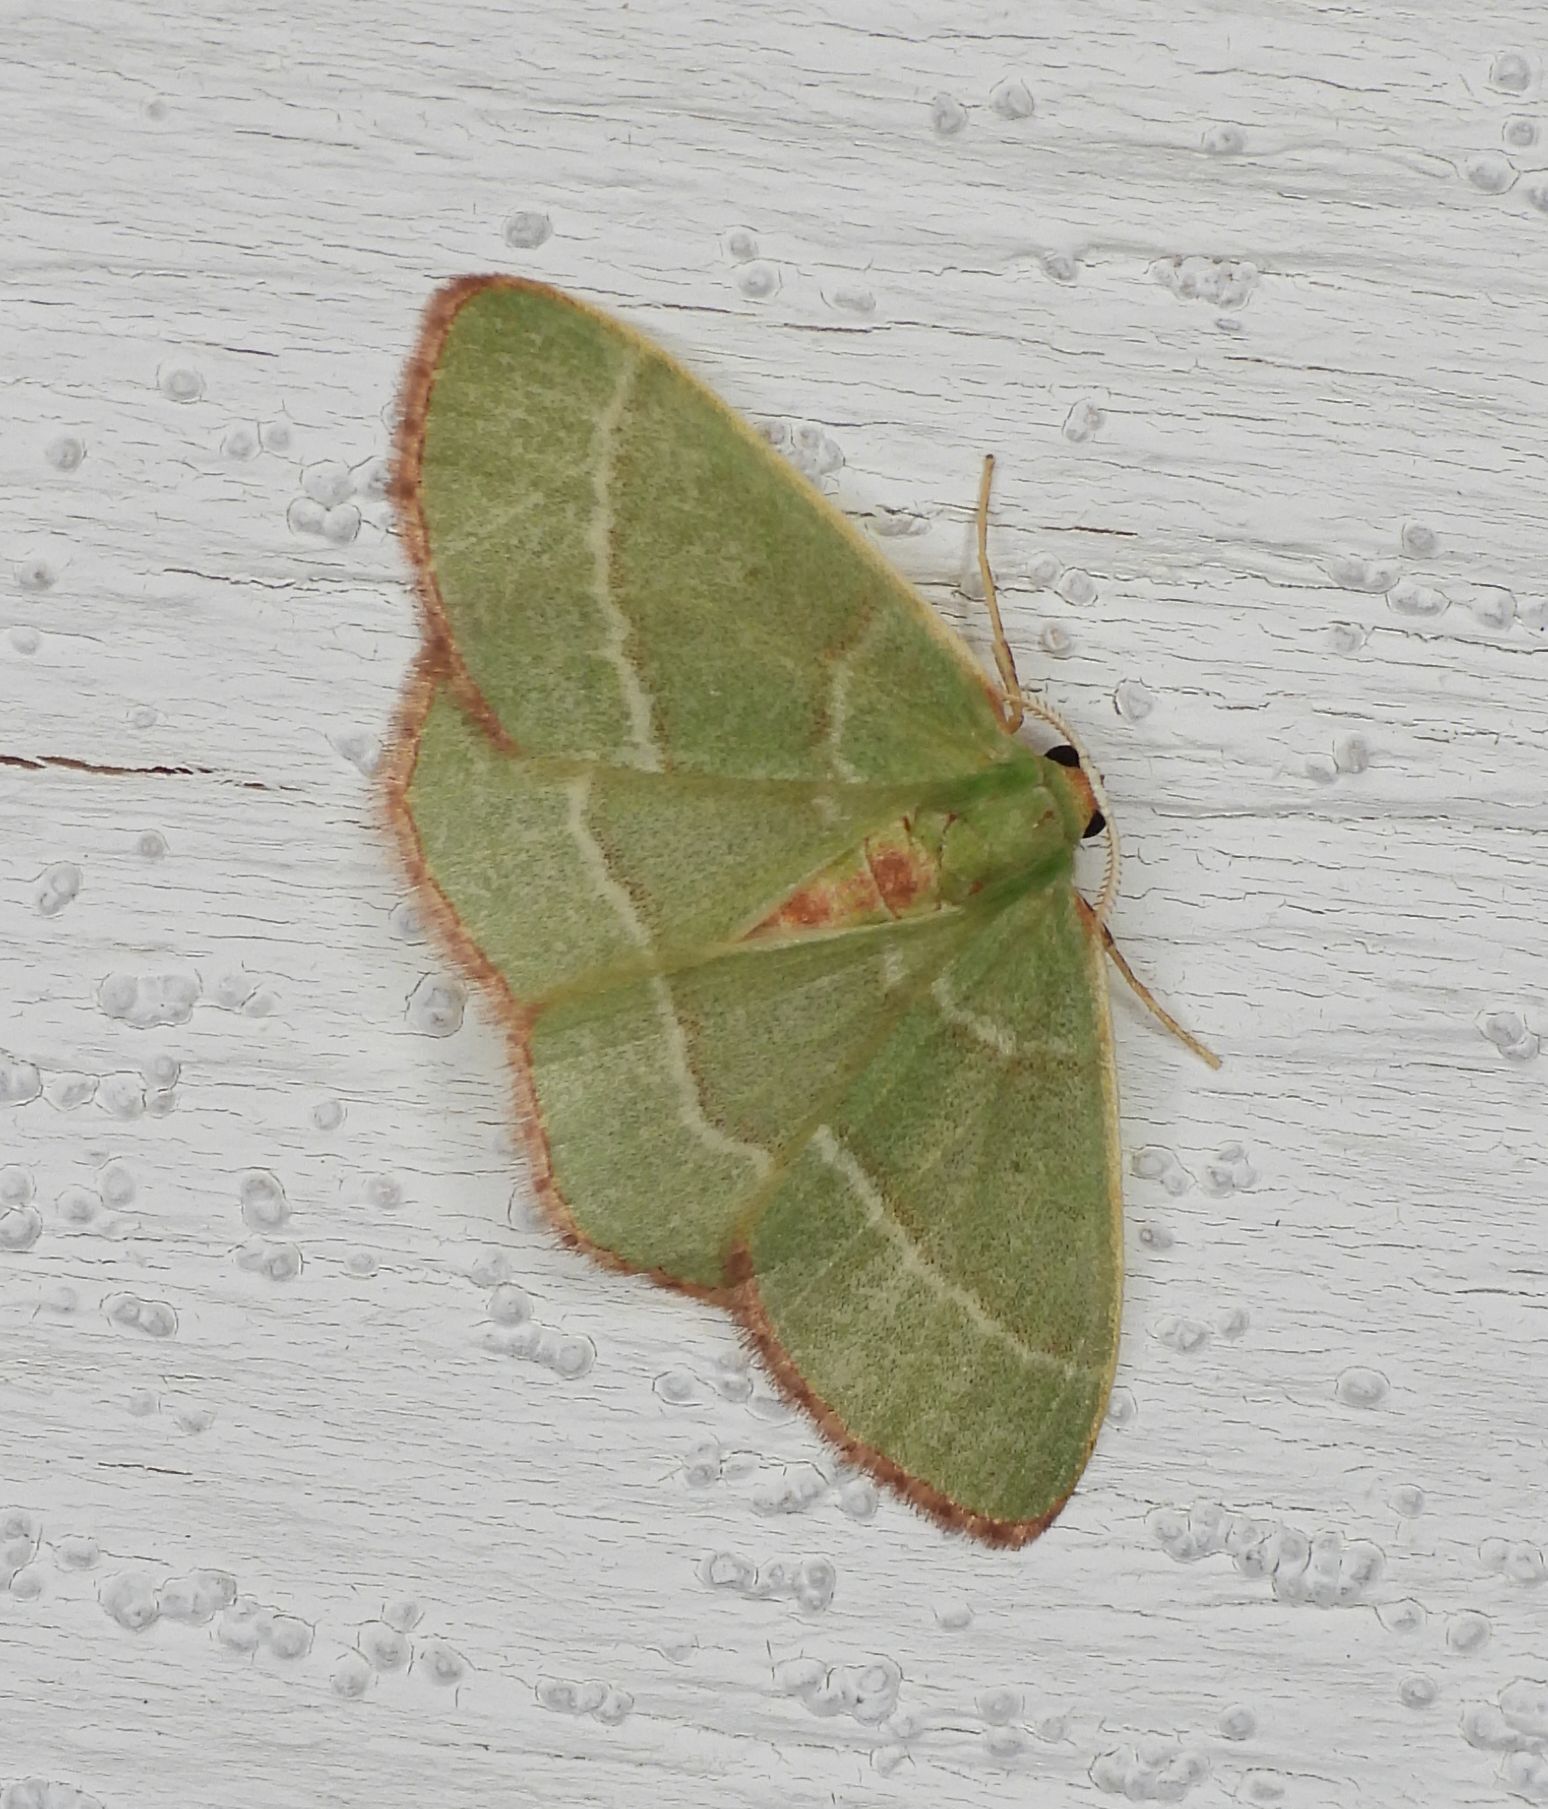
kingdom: Animalia
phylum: Arthropoda
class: Insecta
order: Lepidoptera
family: Geometridae
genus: Nemoria
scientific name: Nemoria bistriaria
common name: Red-fringed emerald
